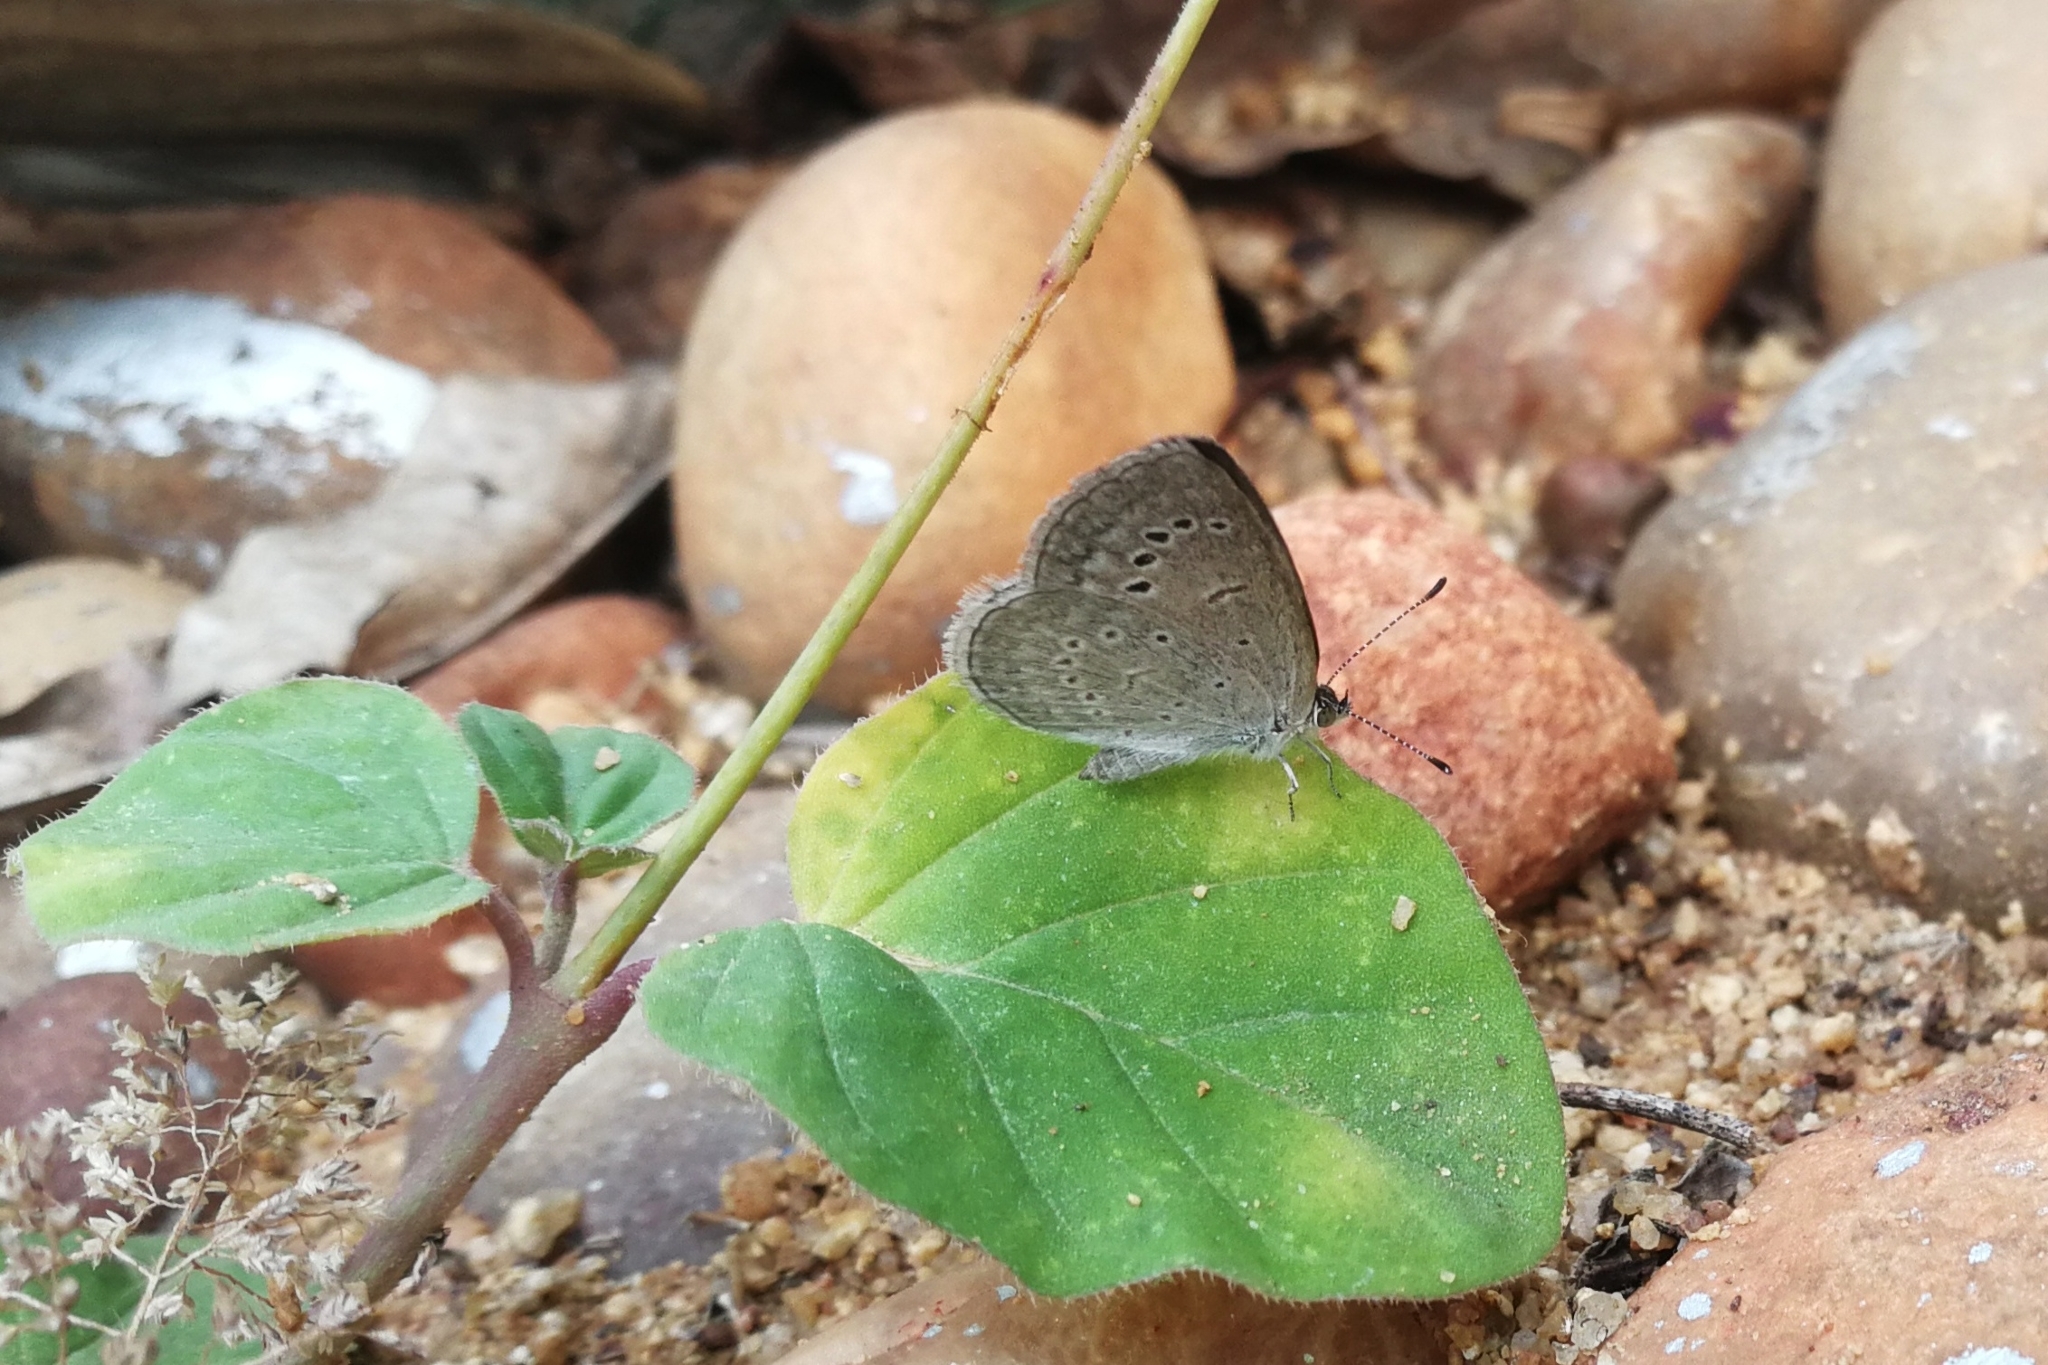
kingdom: Animalia
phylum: Arthropoda
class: Insecta
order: Lepidoptera
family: Lycaenidae
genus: Pseudozizeeria
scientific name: Pseudozizeeria maha
